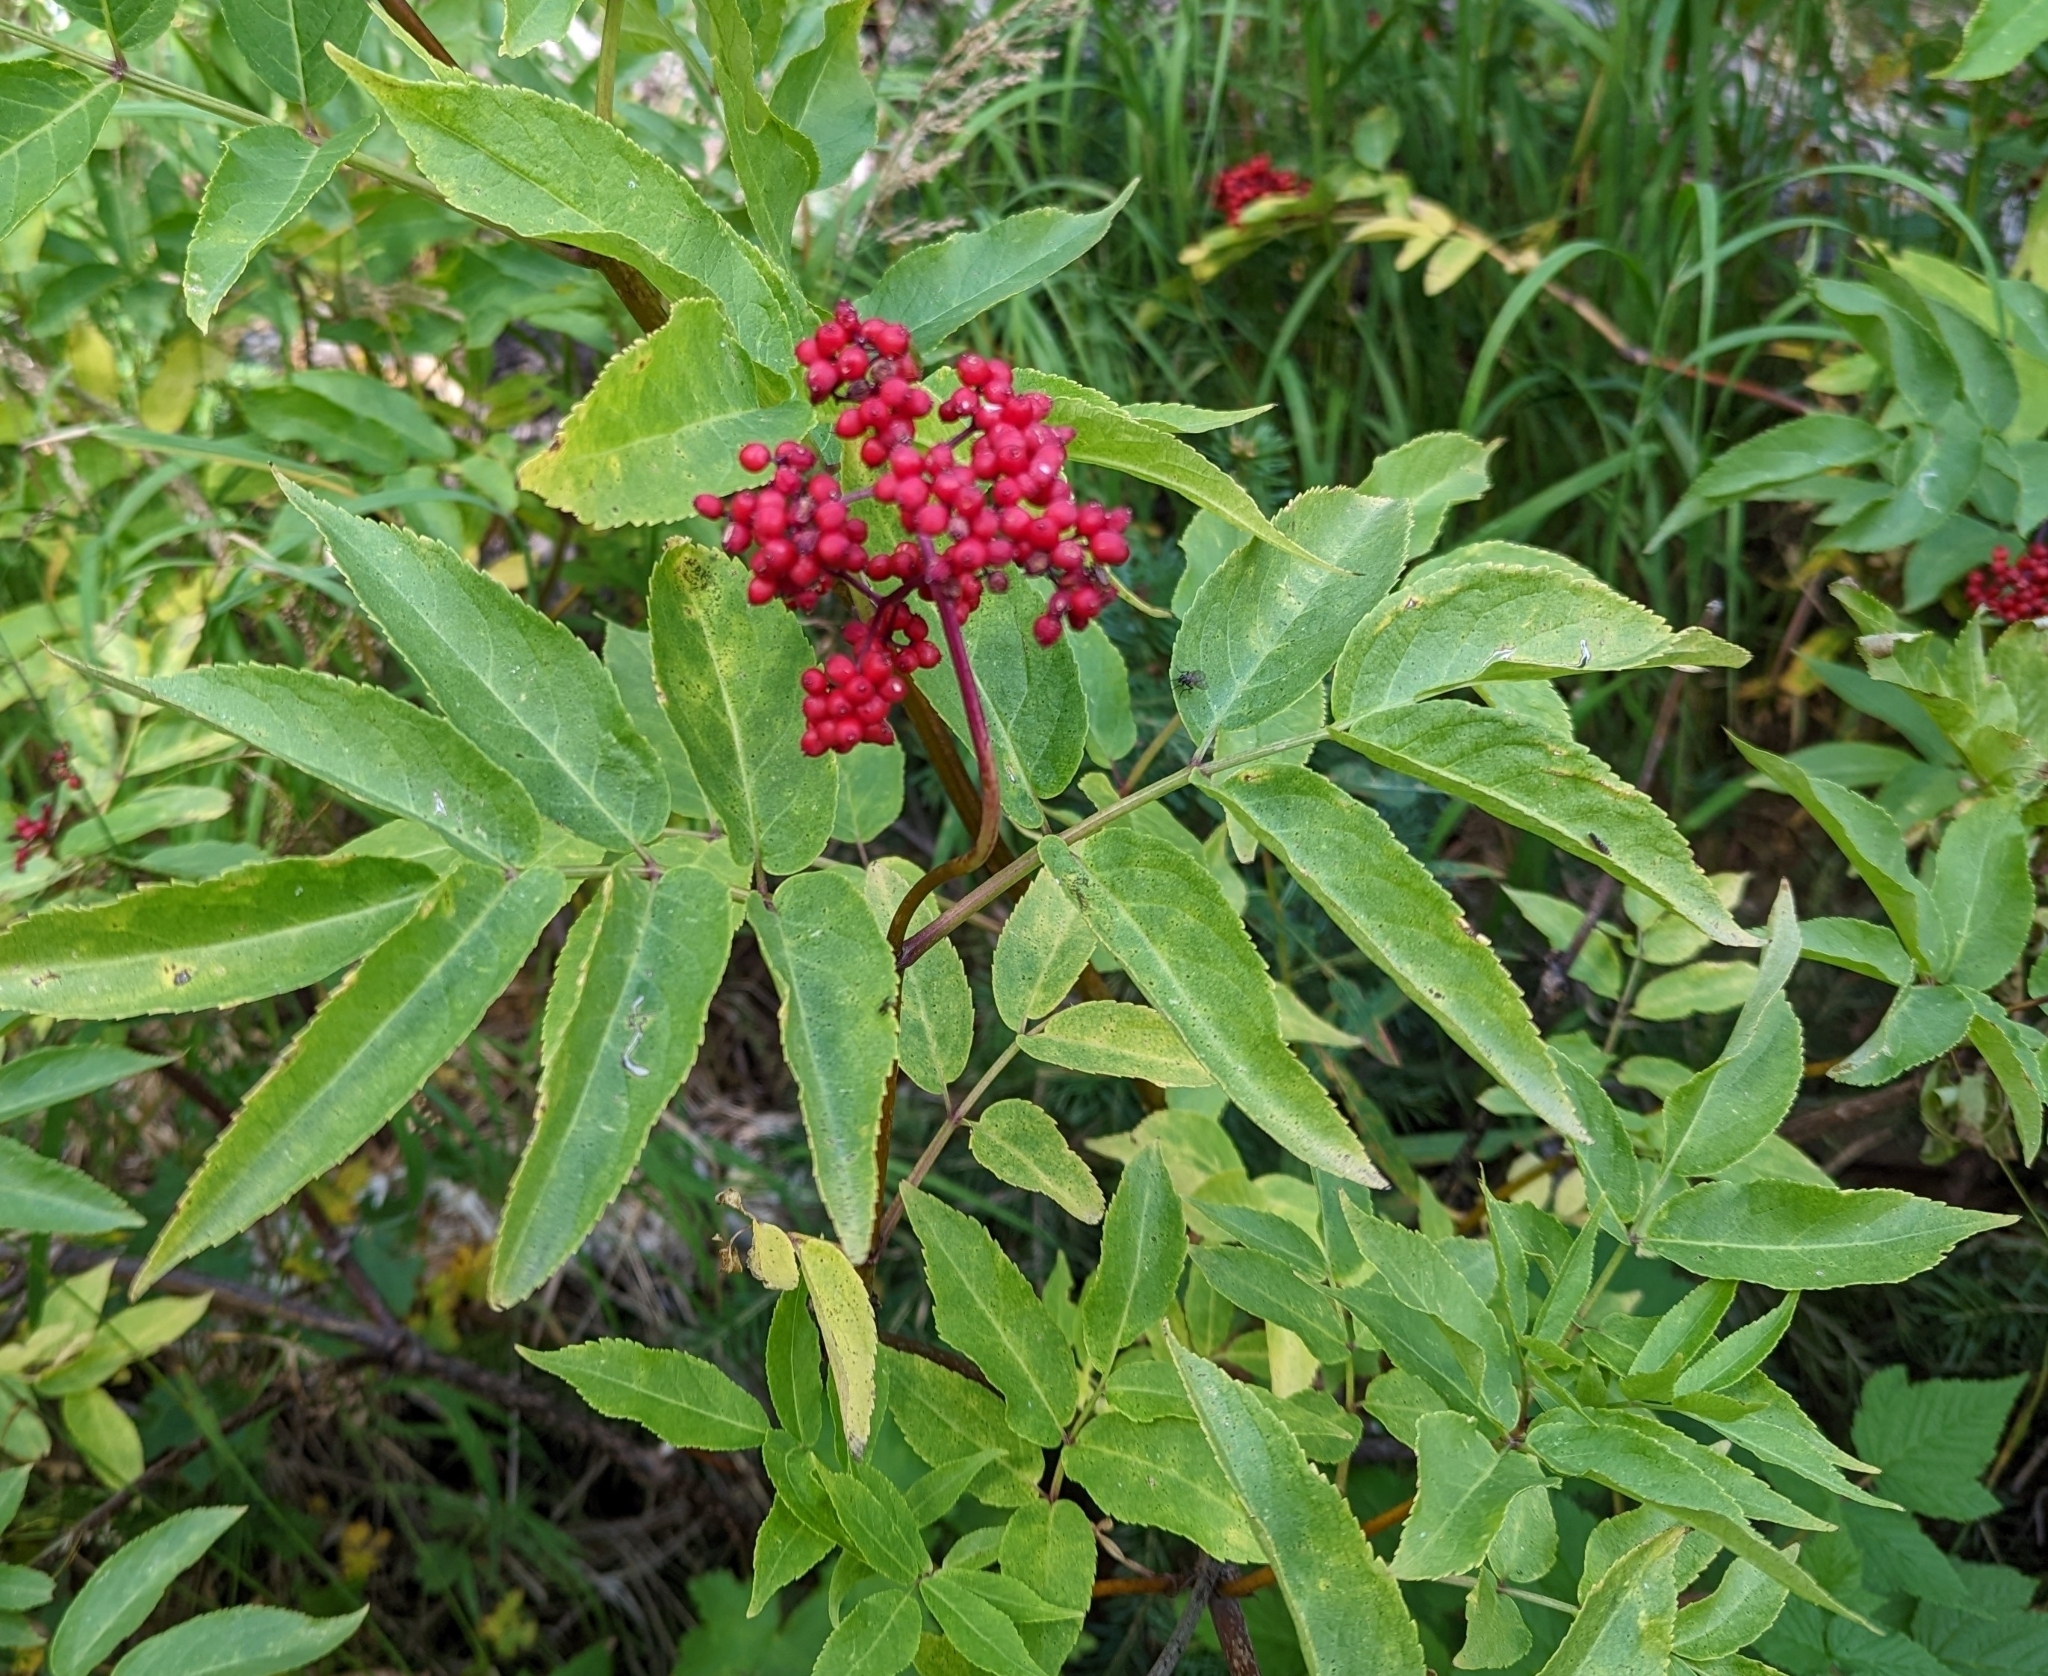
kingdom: Plantae
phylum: Tracheophyta
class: Magnoliopsida
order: Dipsacales
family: Viburnaceae
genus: Sambucus
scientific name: Sambucus racemosa
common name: Red-berried elder
